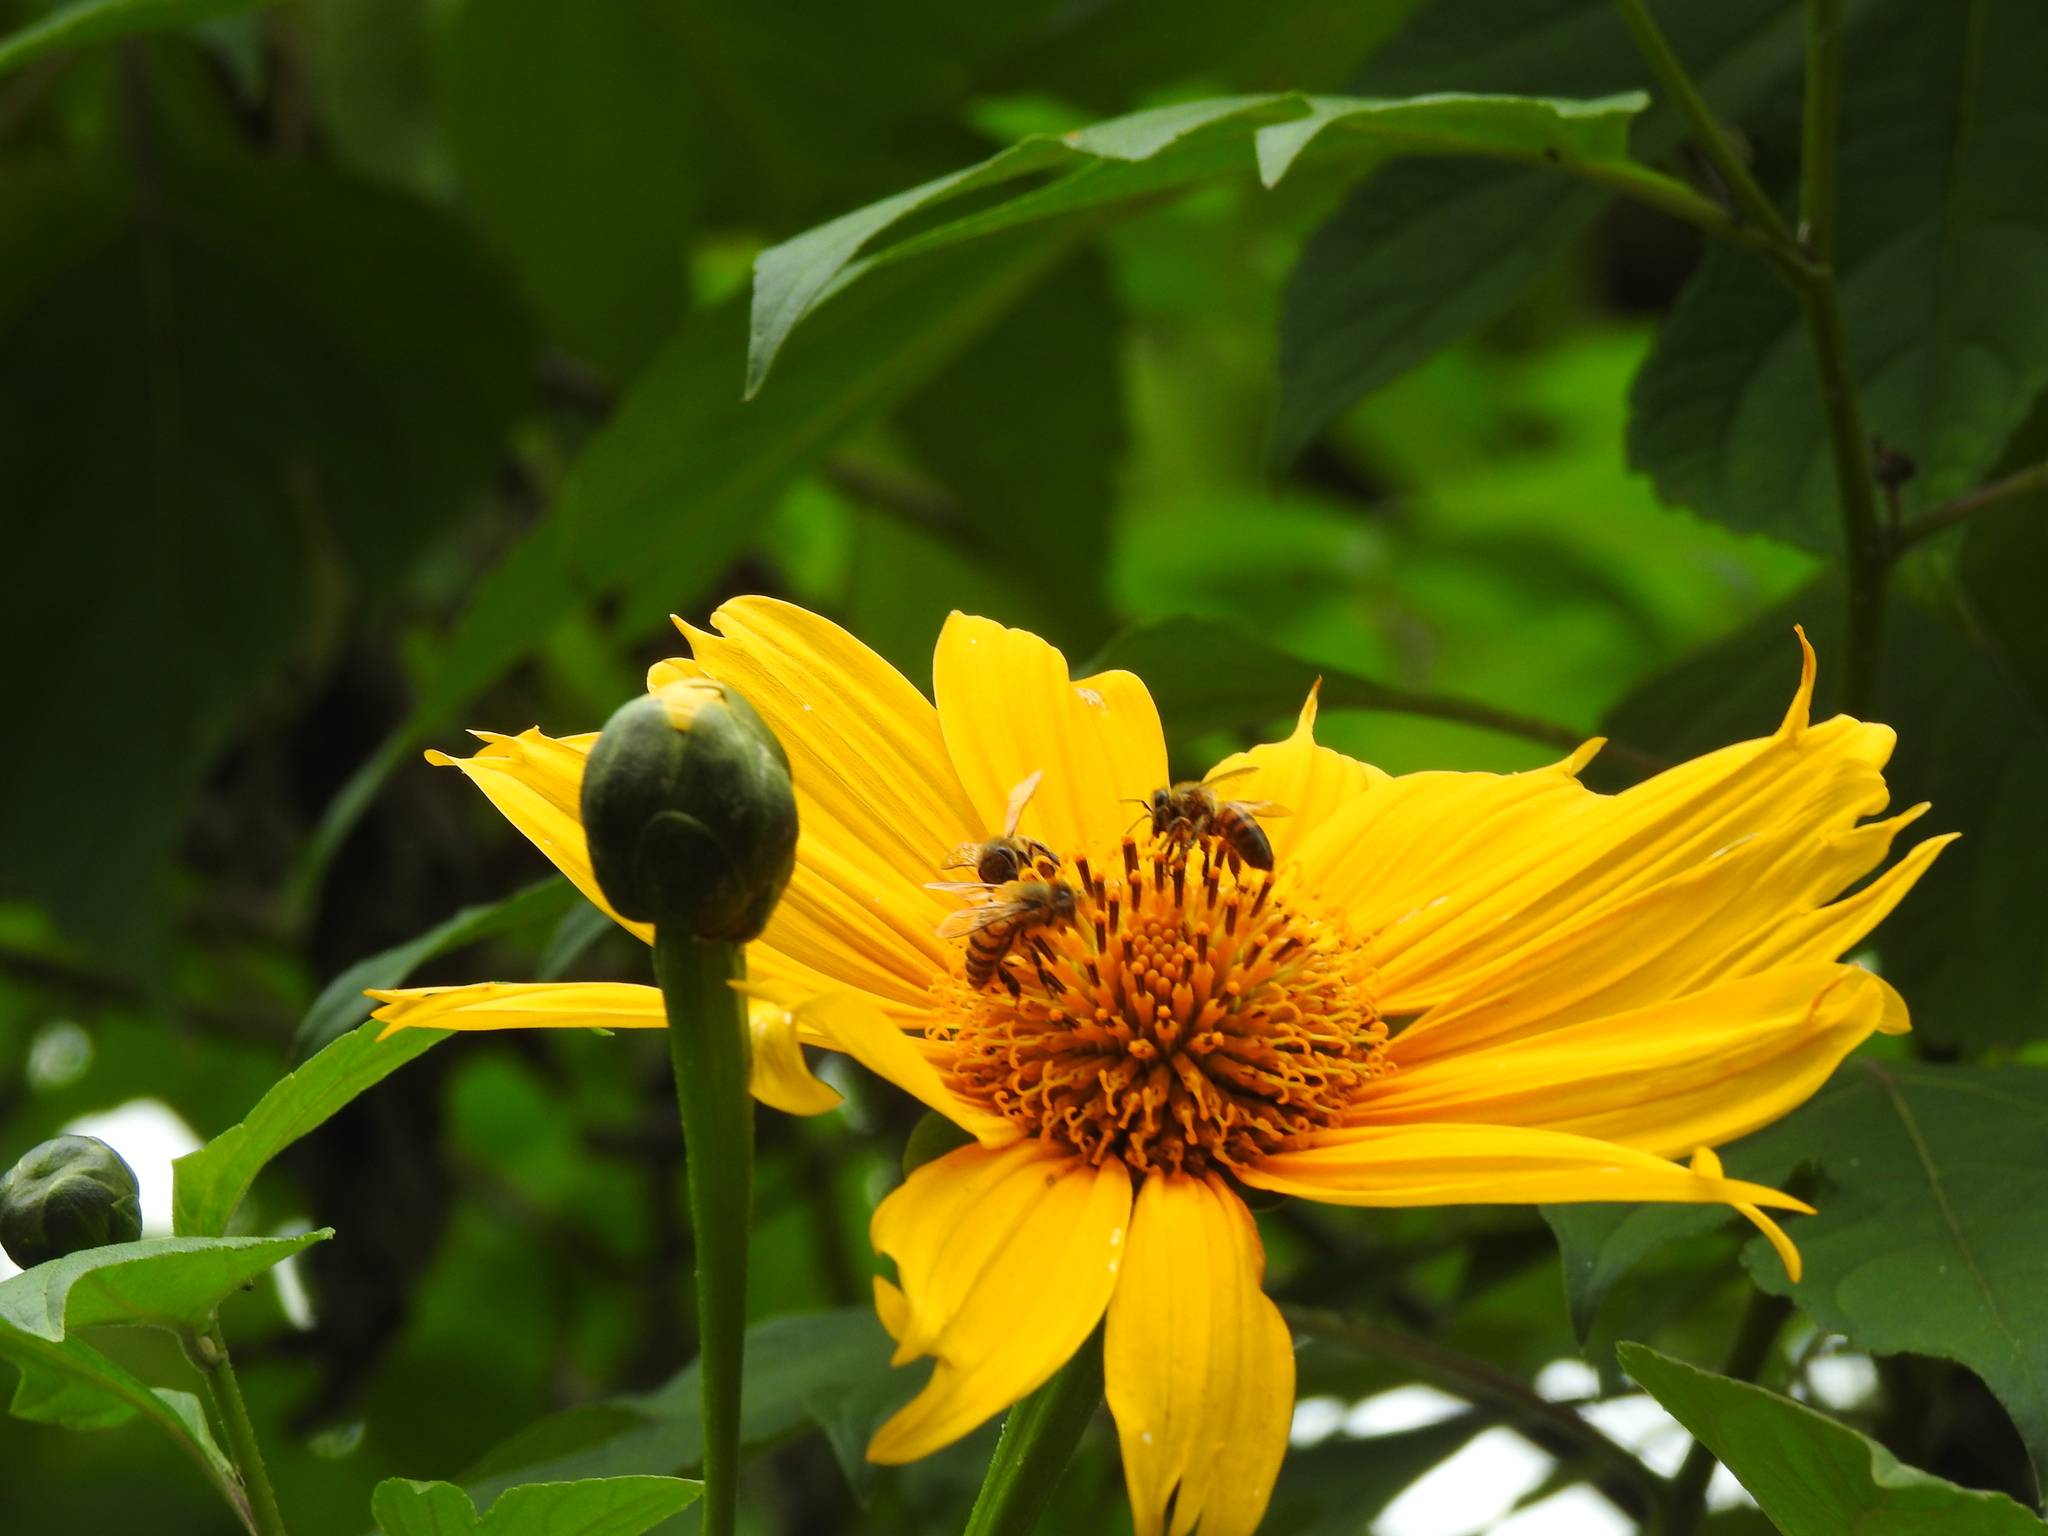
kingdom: Animalia
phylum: Arthropoda
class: Insecta
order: Hymenoptera
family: Apidae
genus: Apis
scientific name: Apis mellifera
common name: Honey bee
